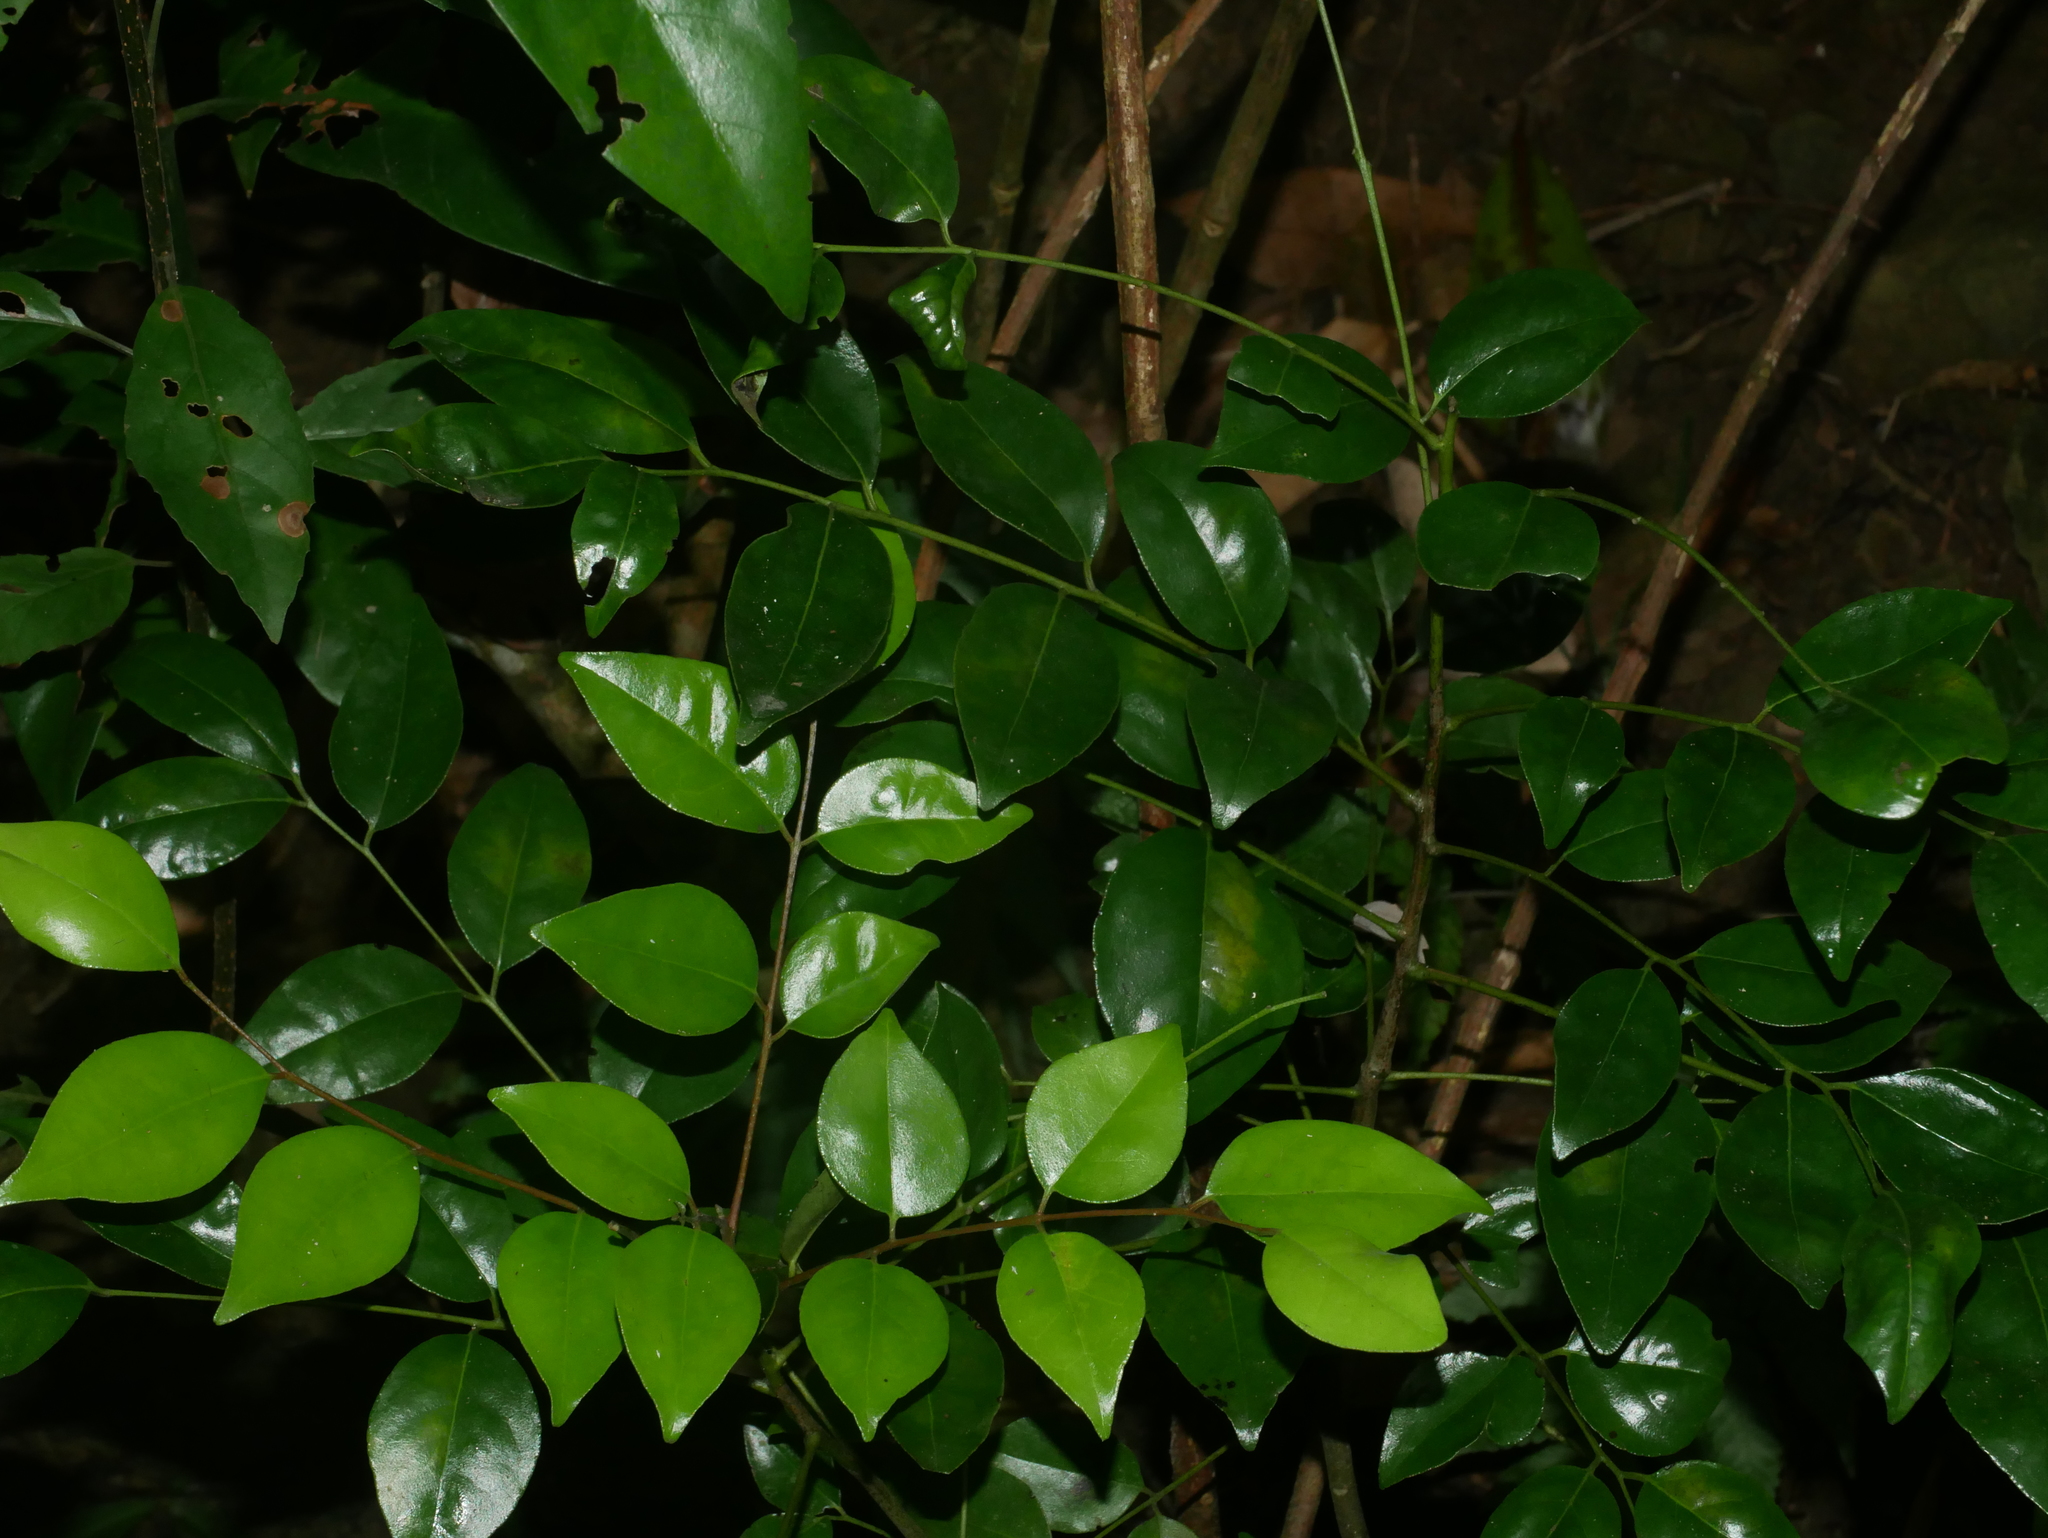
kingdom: Plantae
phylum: Tracheophyta
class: Magnoliopsida
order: Sapindales
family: Rutaceae
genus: Murraya
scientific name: Murraya euchrestifolia
